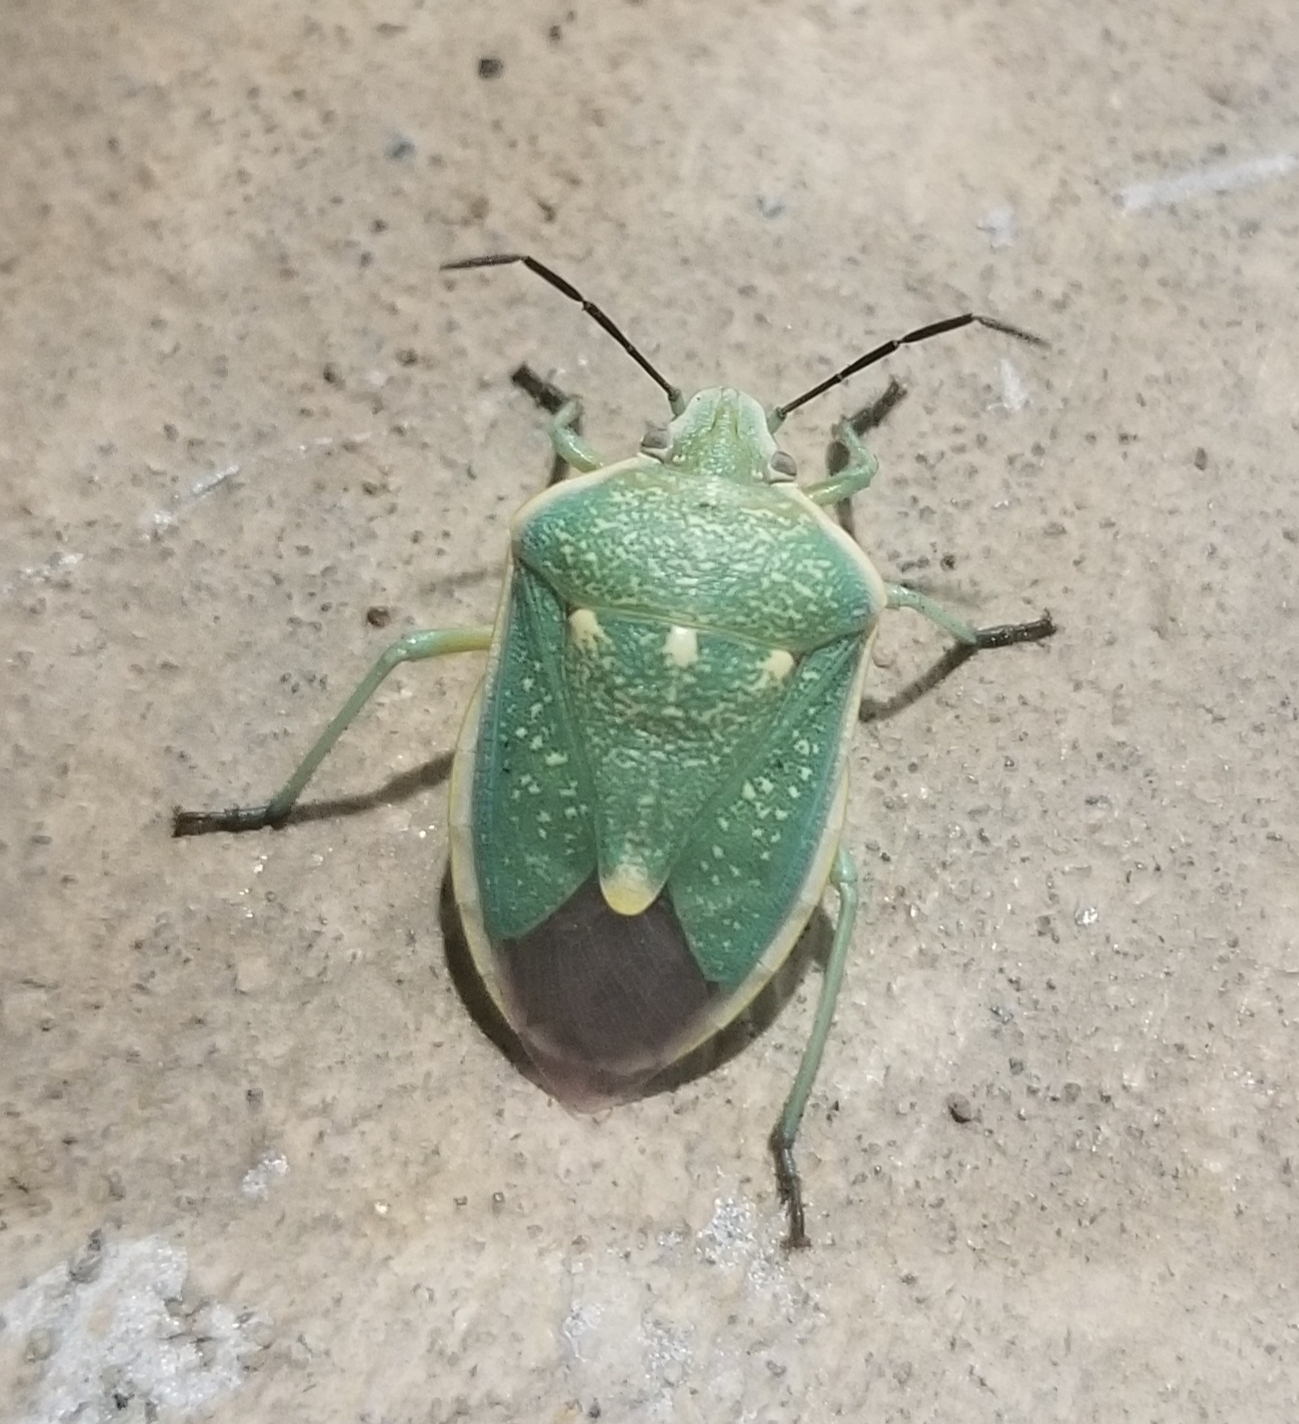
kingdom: Animalia
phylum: Arthropoda
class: Insecta
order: Hemiptera
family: Pentatomidae
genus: Chlorochroa
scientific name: Chlorochroa sayi
